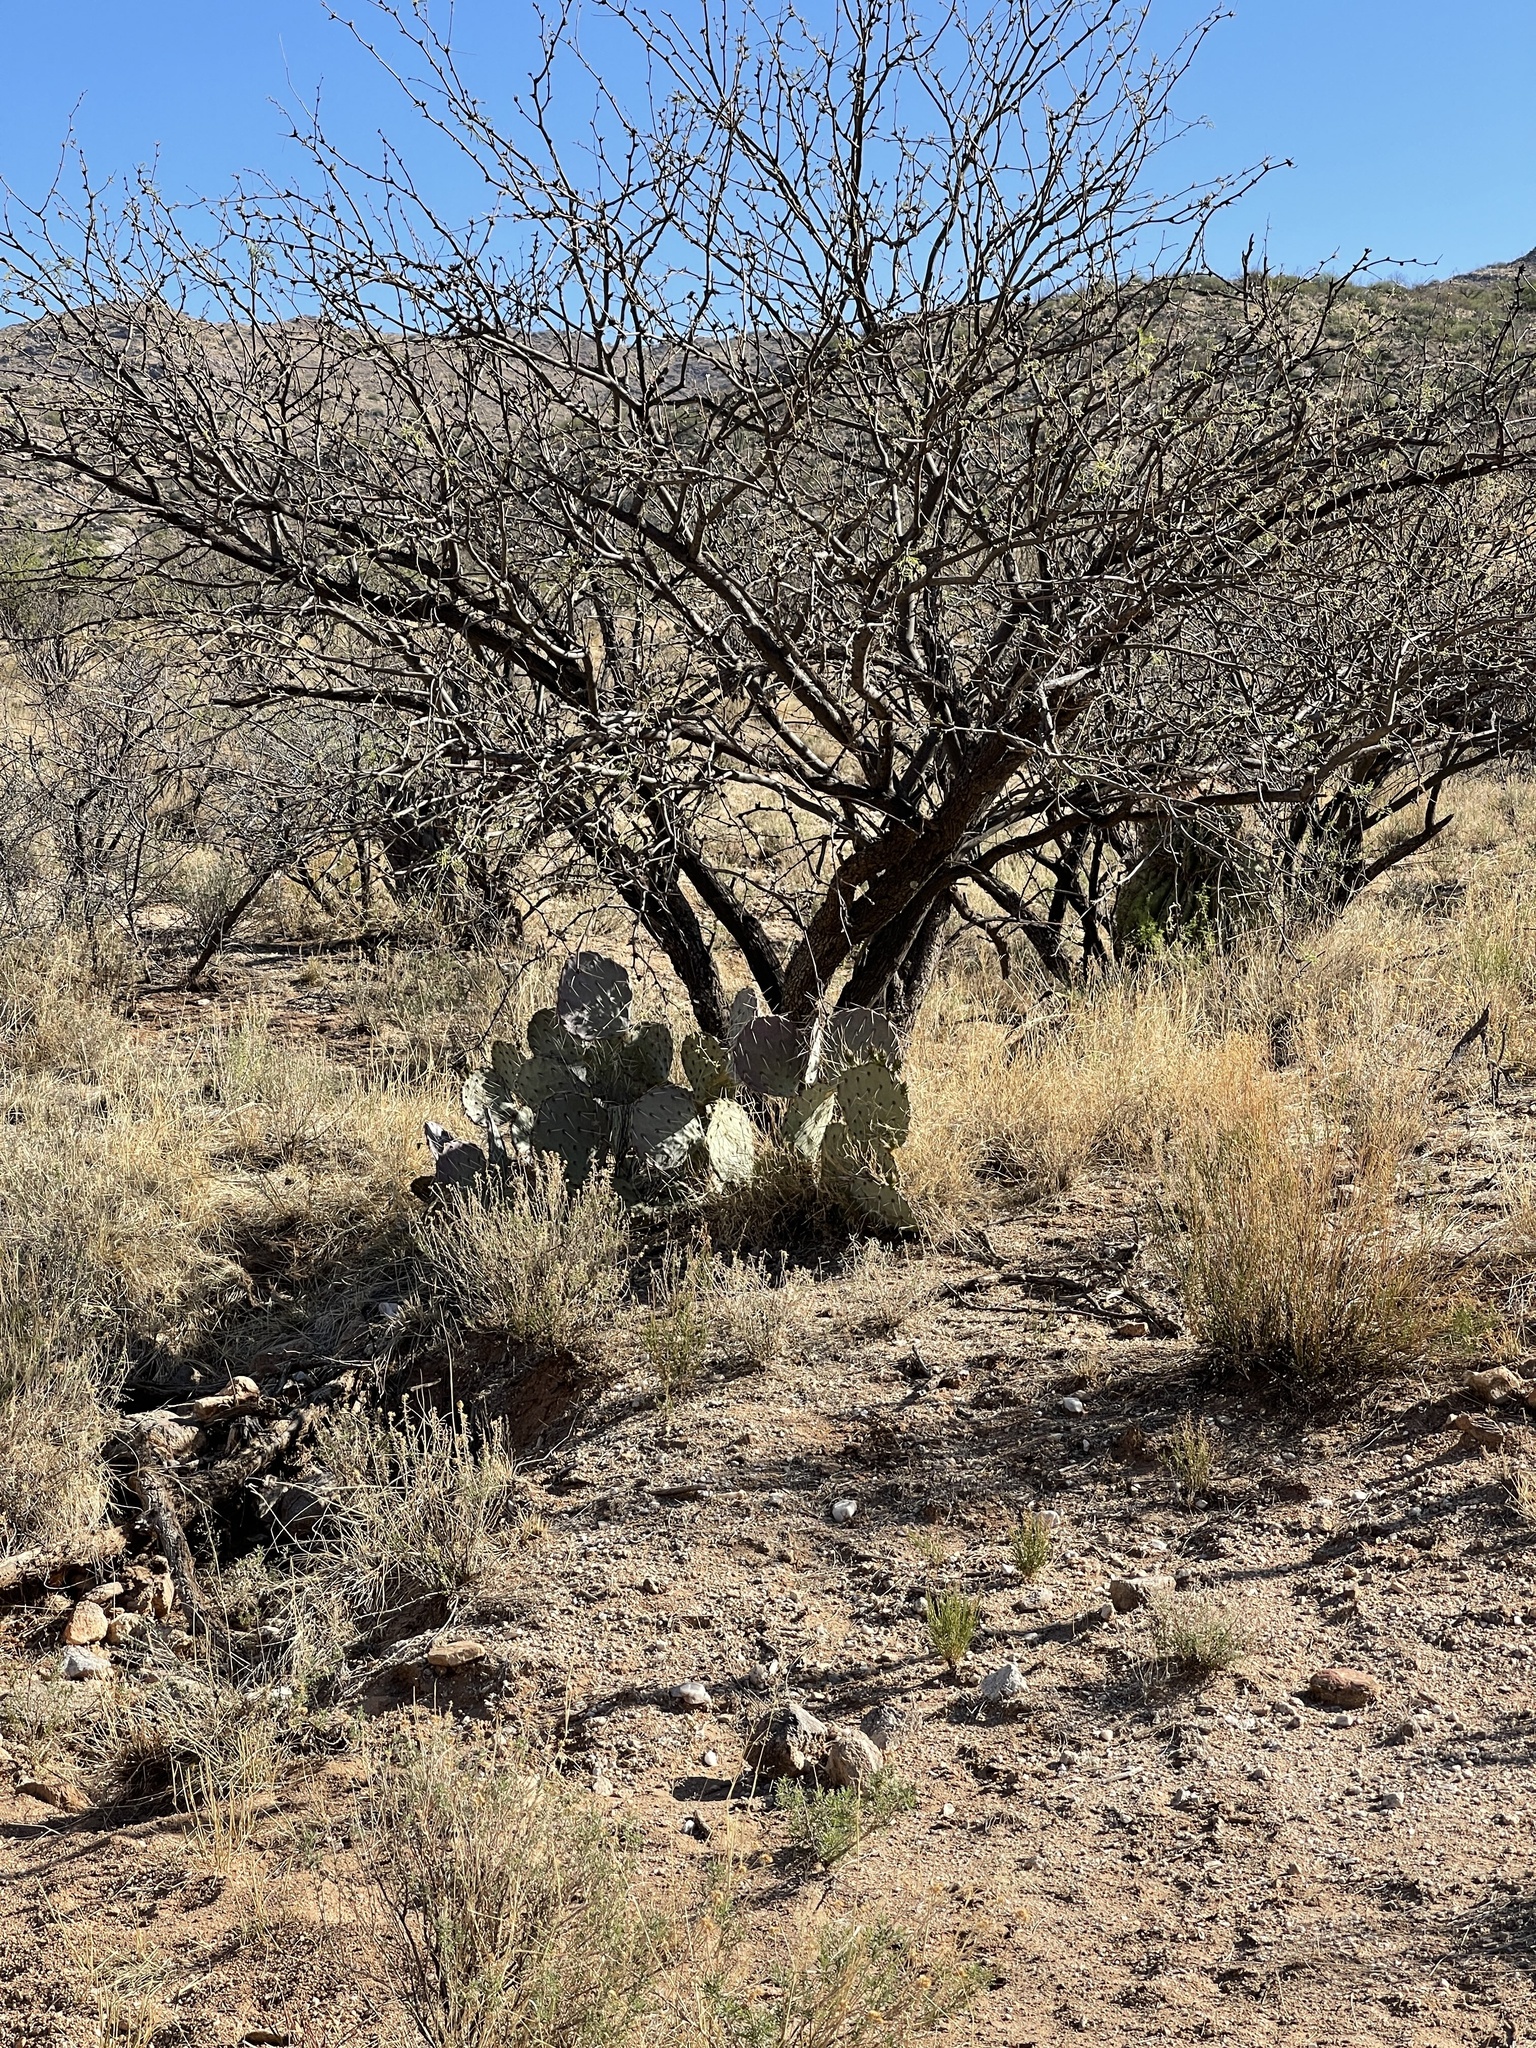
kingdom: Plantae
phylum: Tracheophyta
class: Magnoliopsida
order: Caryophyllales
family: Cactaceae
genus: Opuntia
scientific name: Opuntia engelmannii
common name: Cactus-apple
